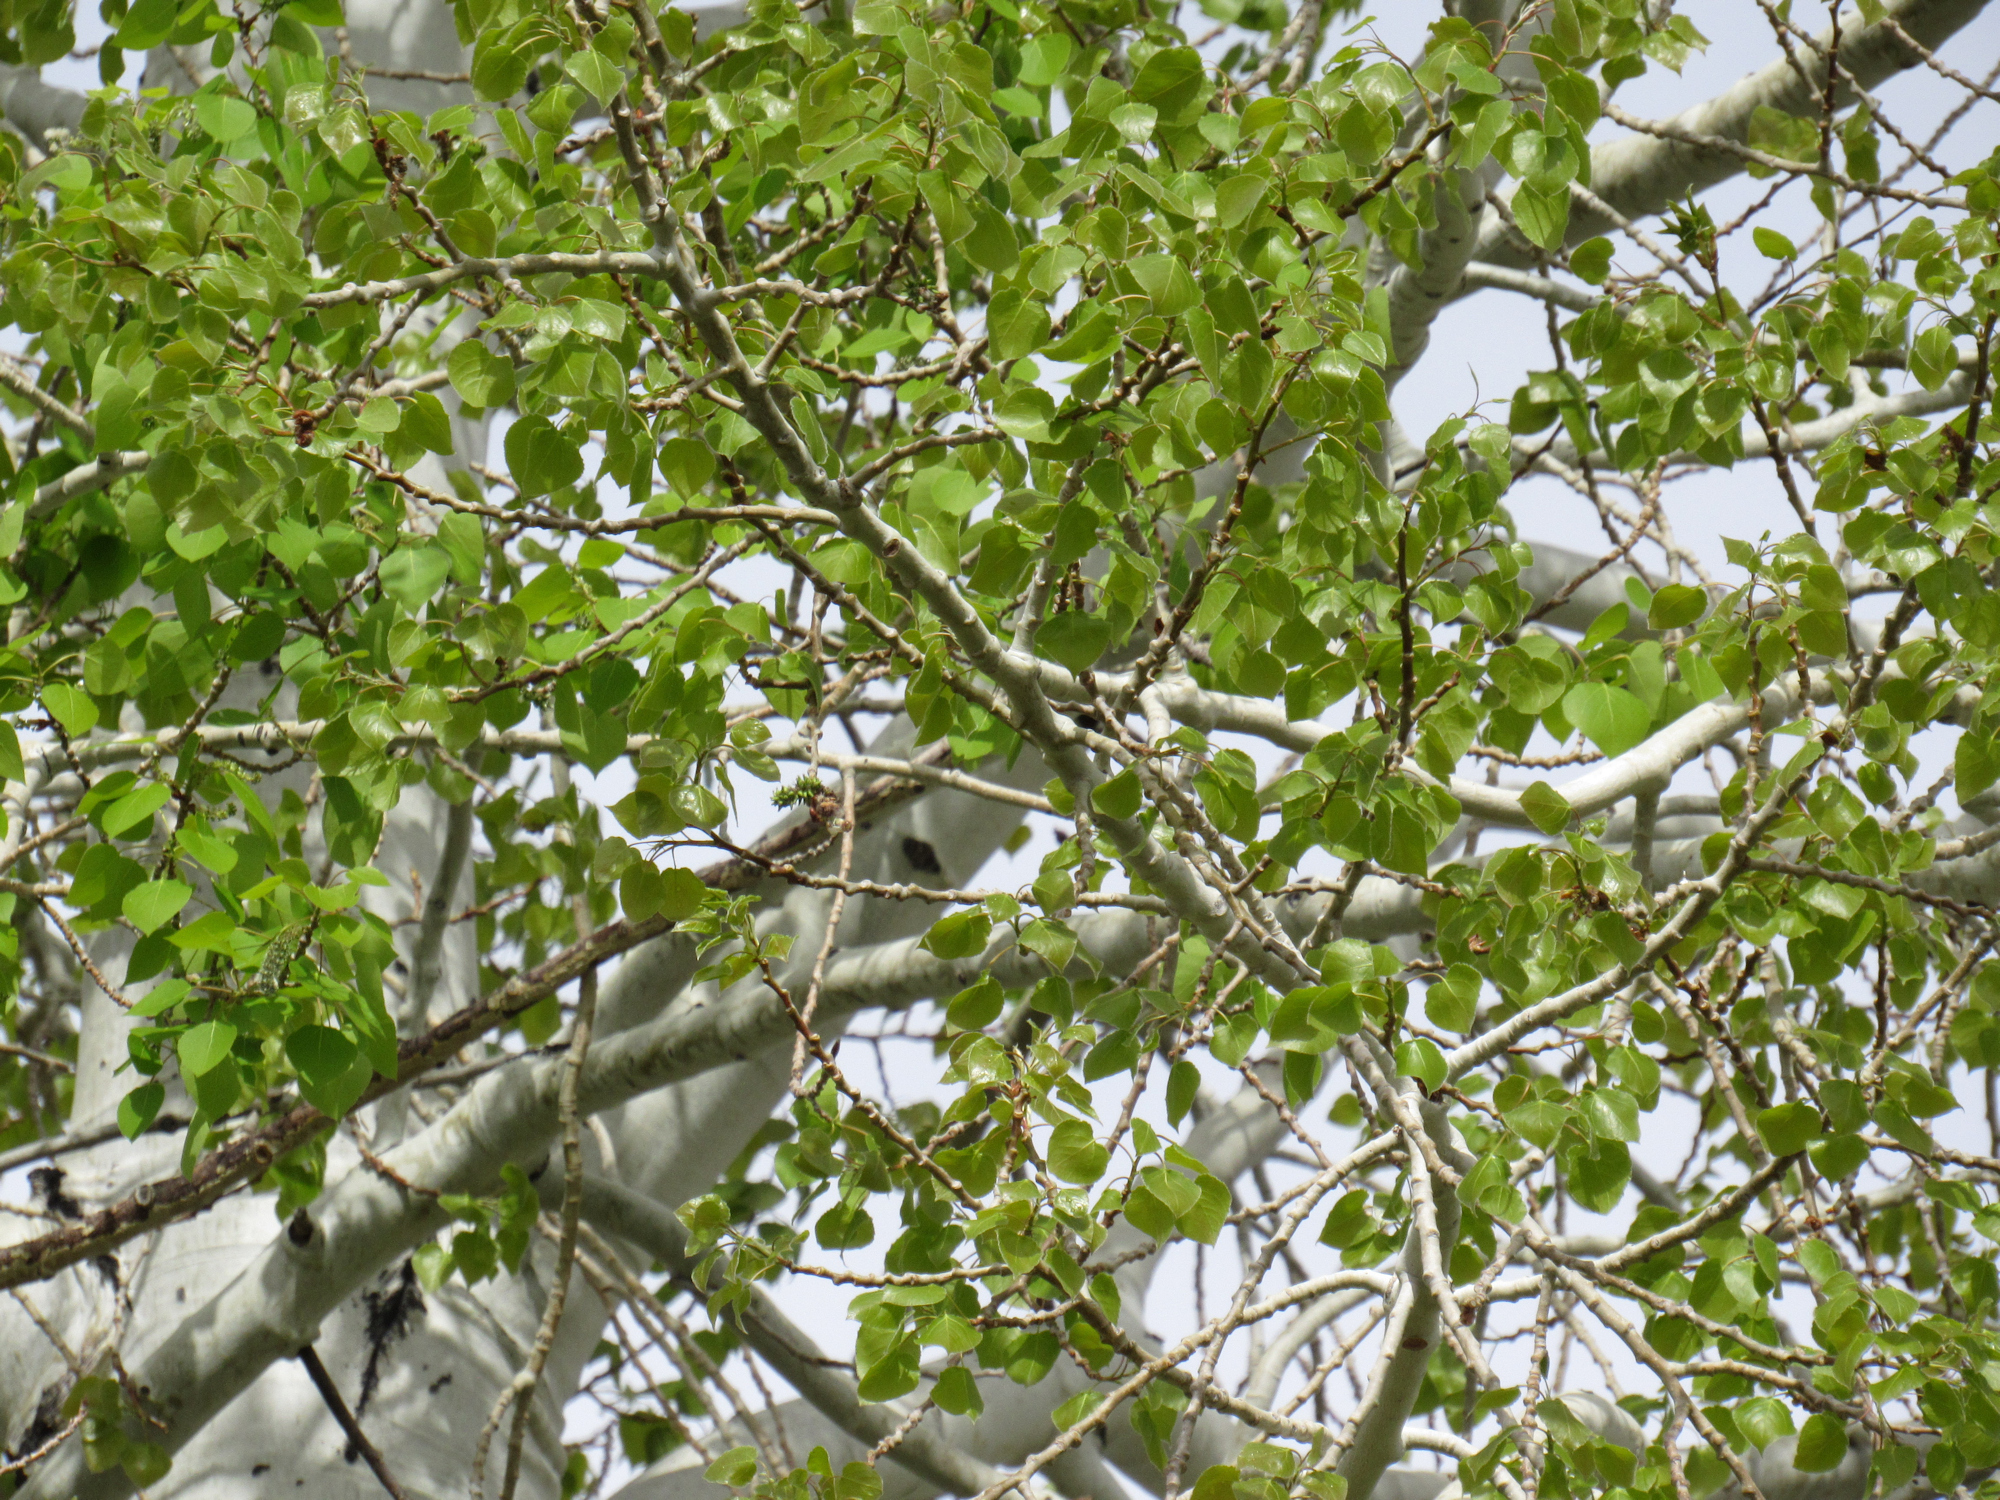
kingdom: Plantae
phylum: Tracheophyta
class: Magnoliopsida
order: Malpighiales
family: Salicaceae
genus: Populus
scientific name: Populus tremuloides
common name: Quaking aspen
